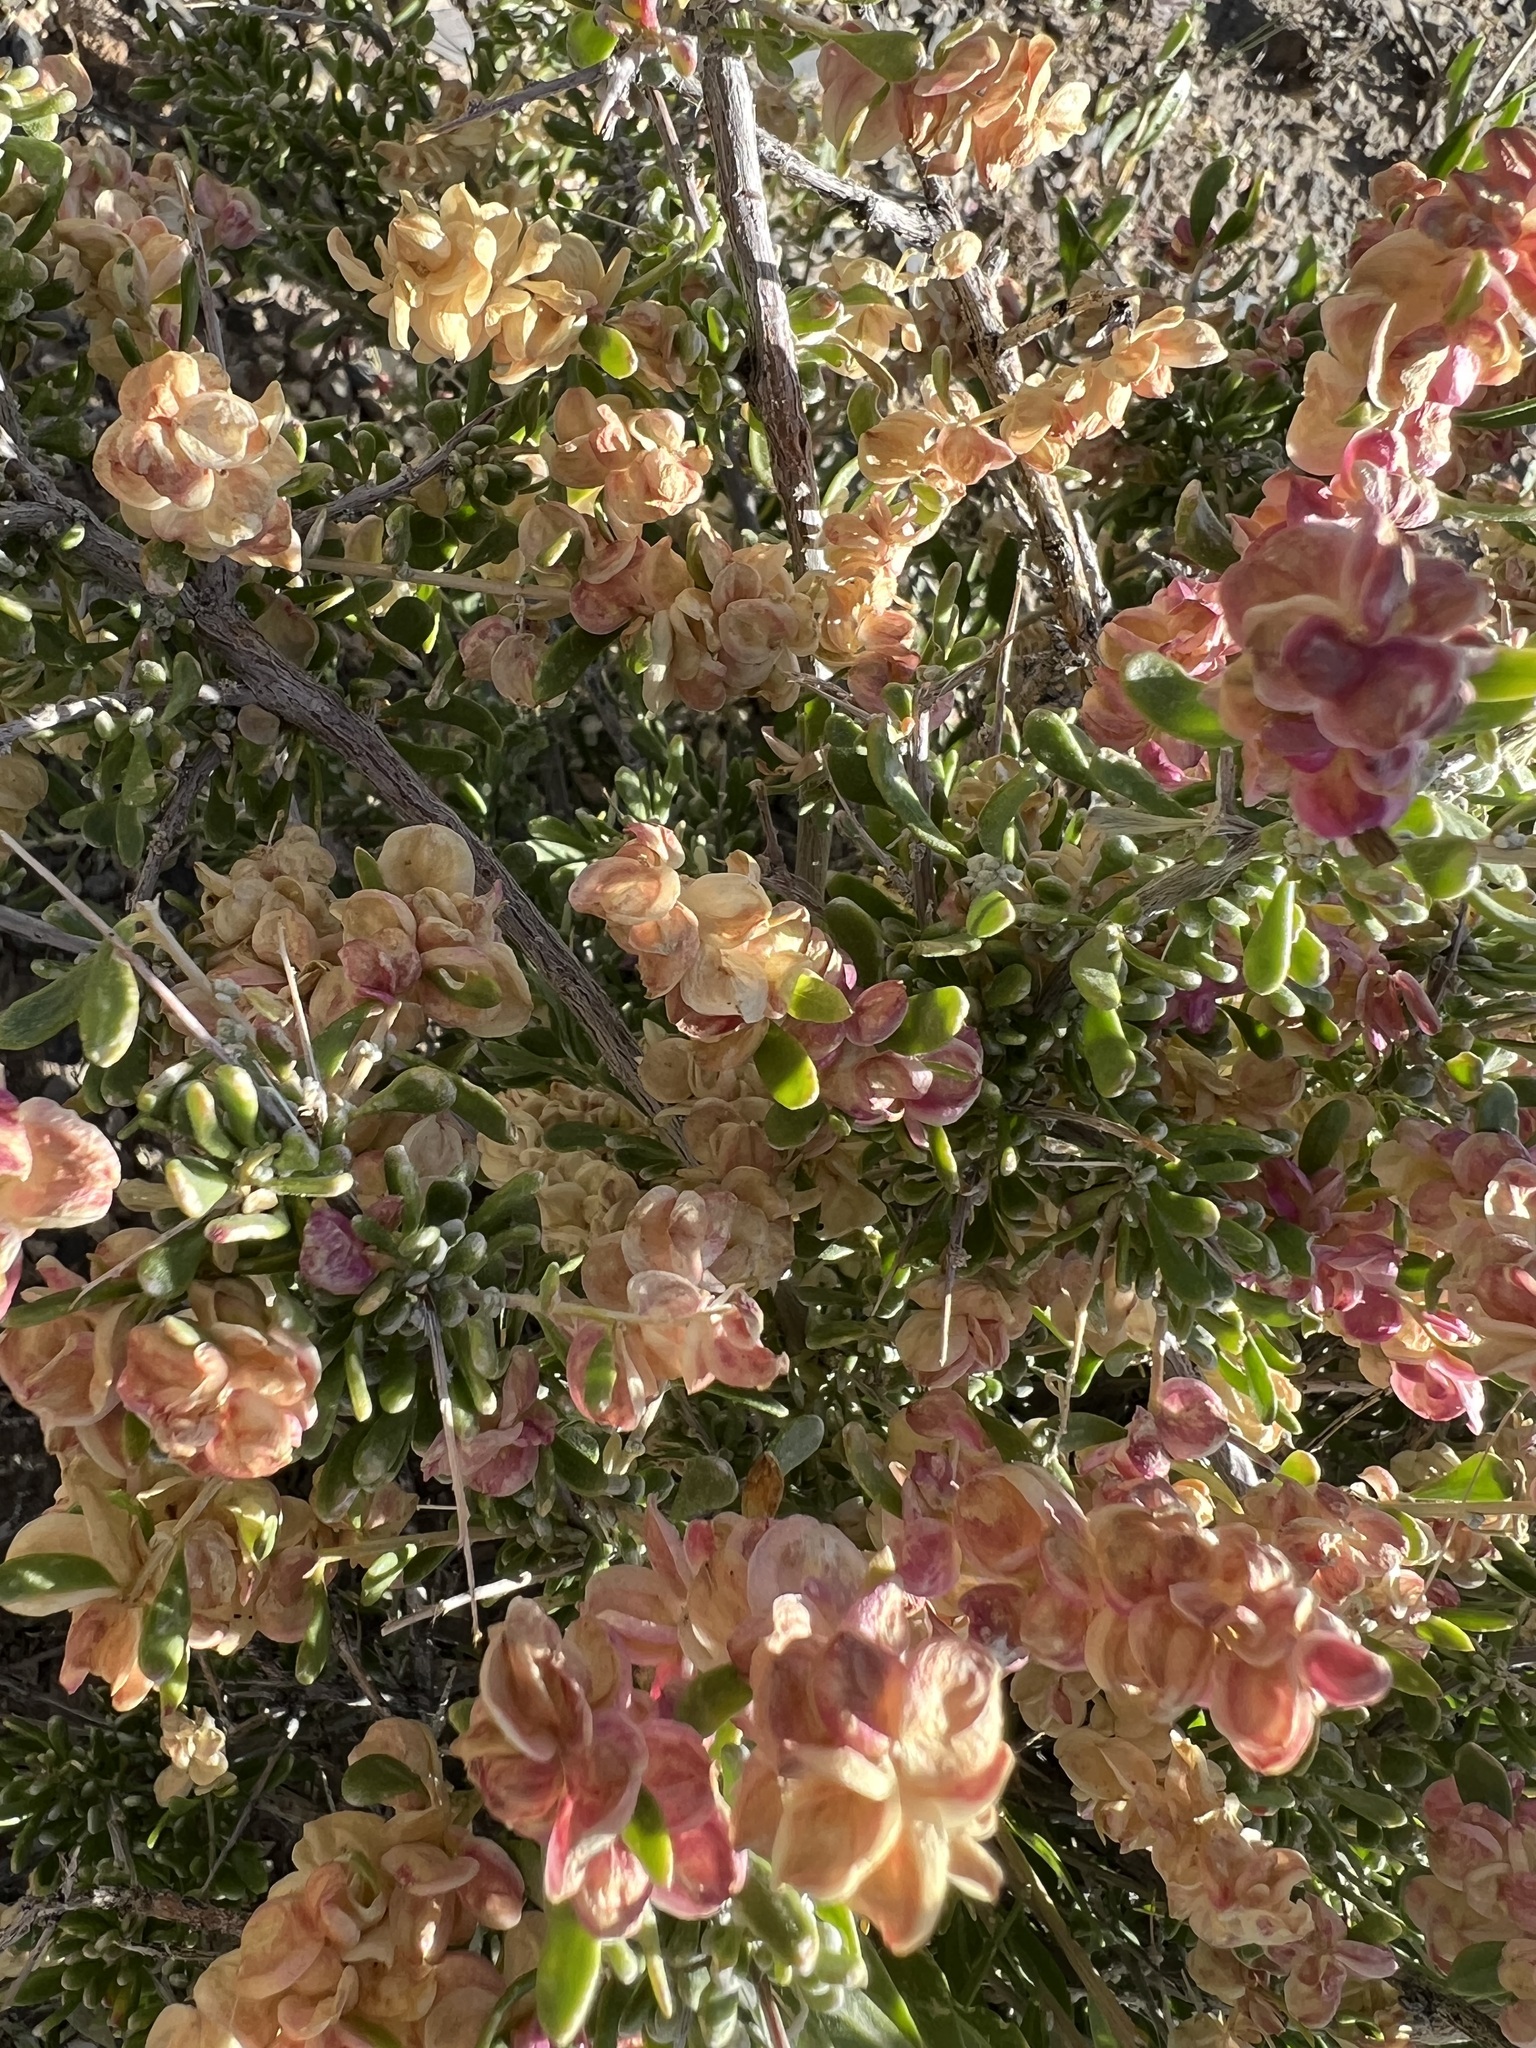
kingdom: Plantae
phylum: Tracheophyta
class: Magnoliopsida
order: Caryophyllales
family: Amaranthaceae
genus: Grayia
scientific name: Grayia spinosa
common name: Spiny hopsage
